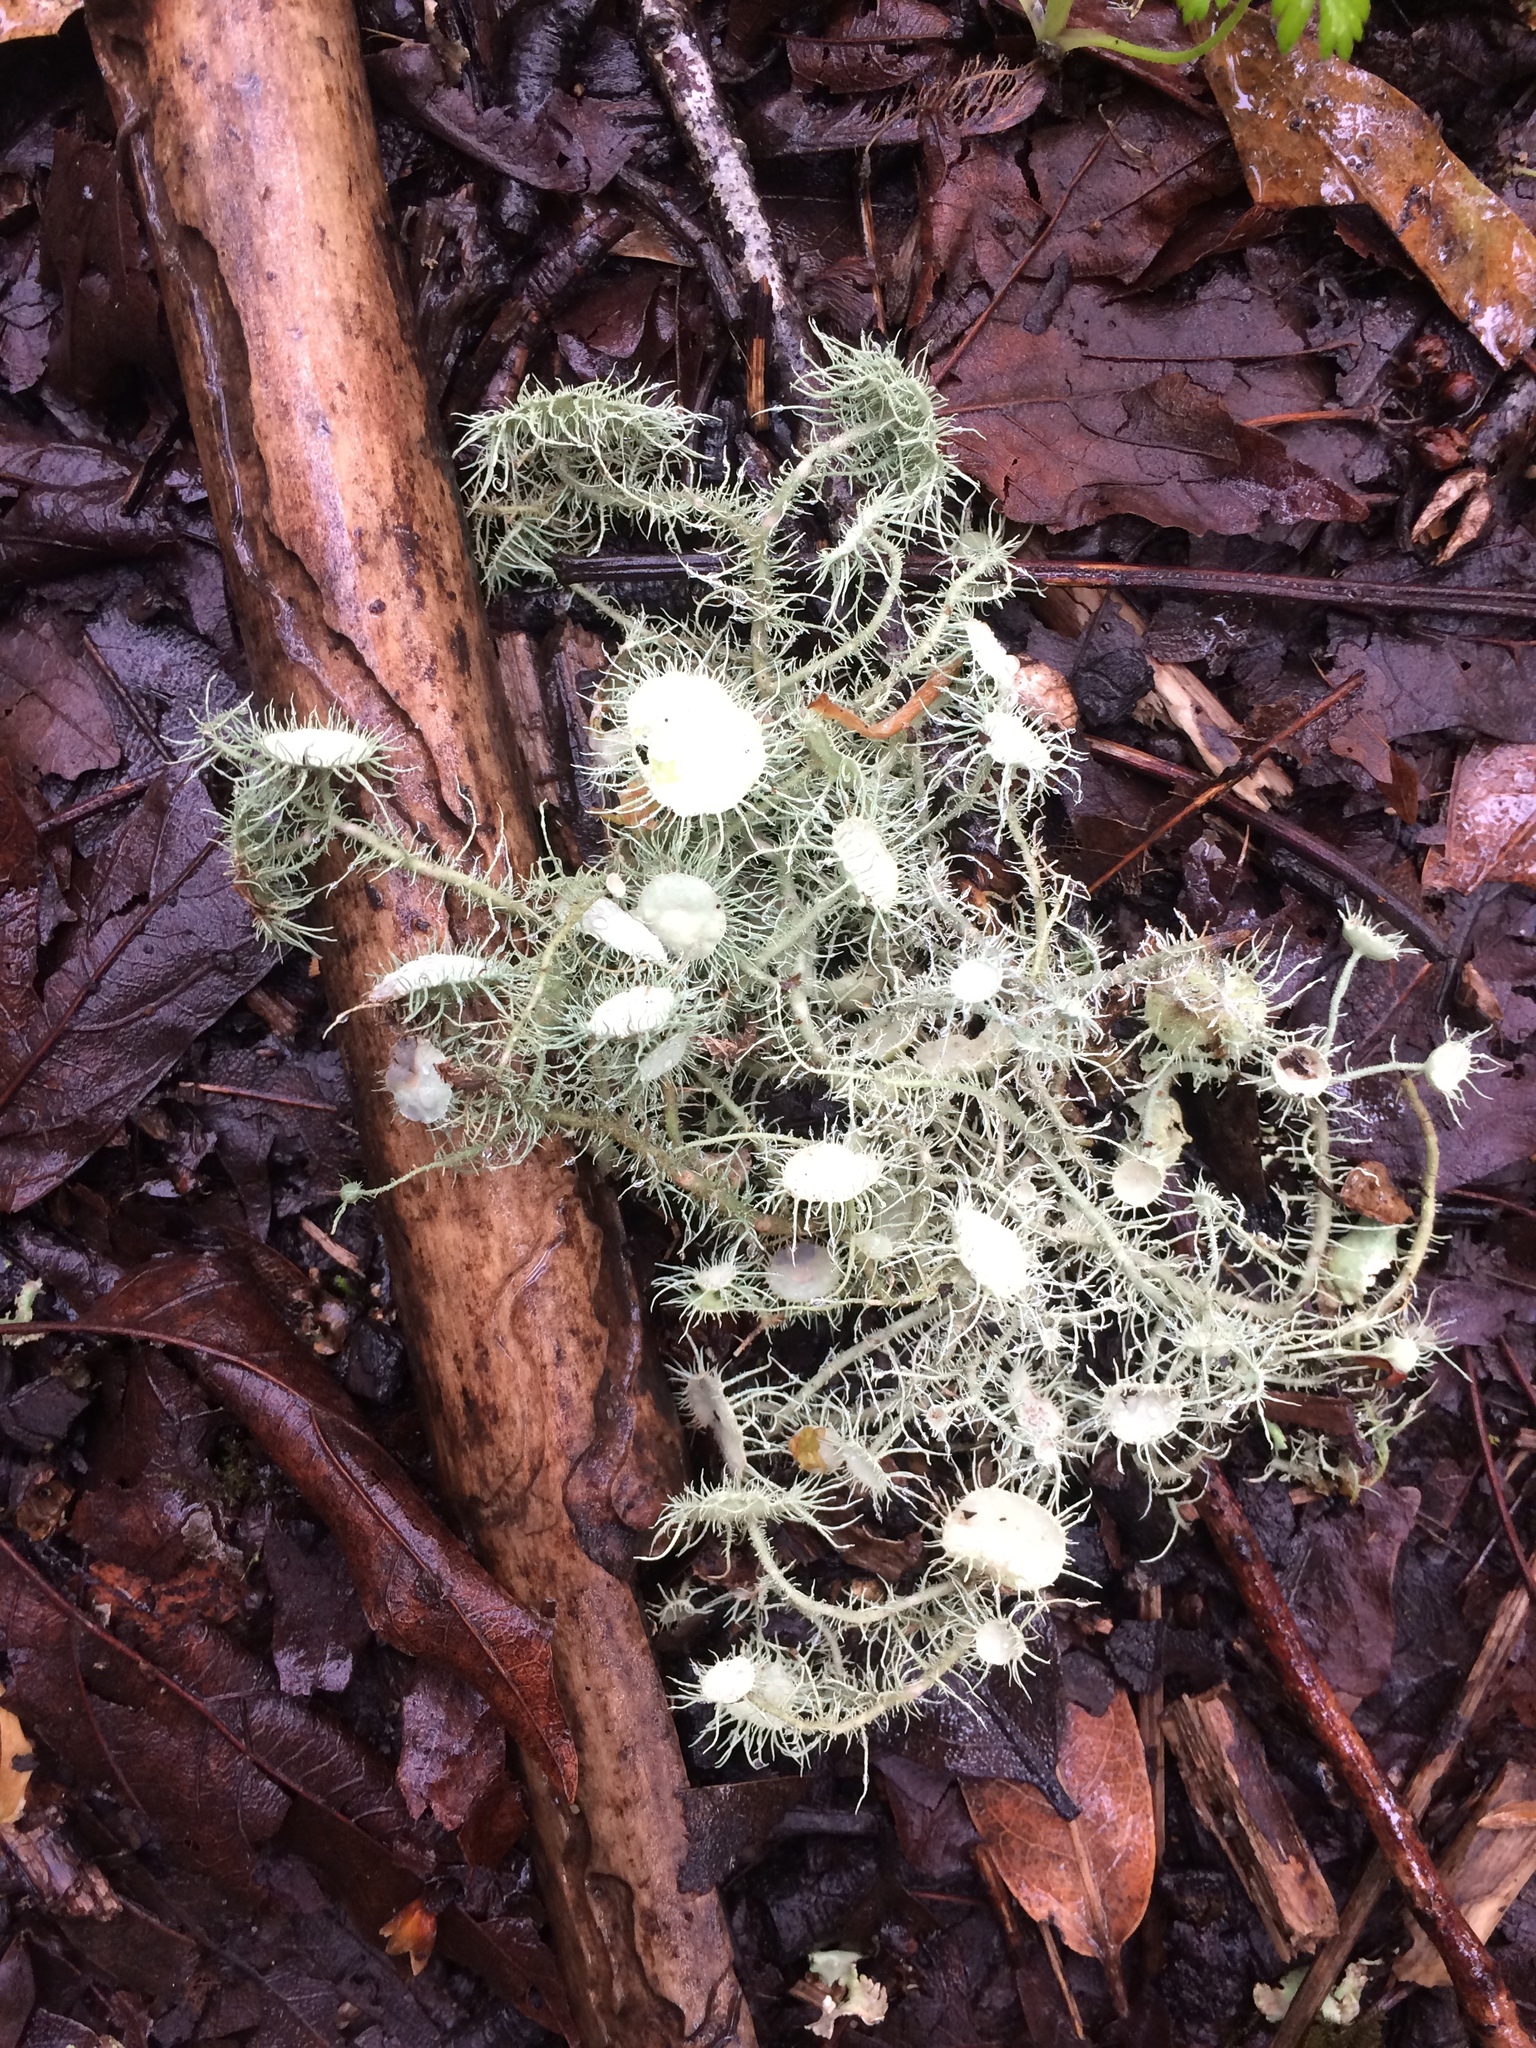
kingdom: Fungi
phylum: Ascomycota
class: Lecanoromycetes
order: Lecanorales
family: Parmeliaceae
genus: Usnea
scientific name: Usnea intermedia
